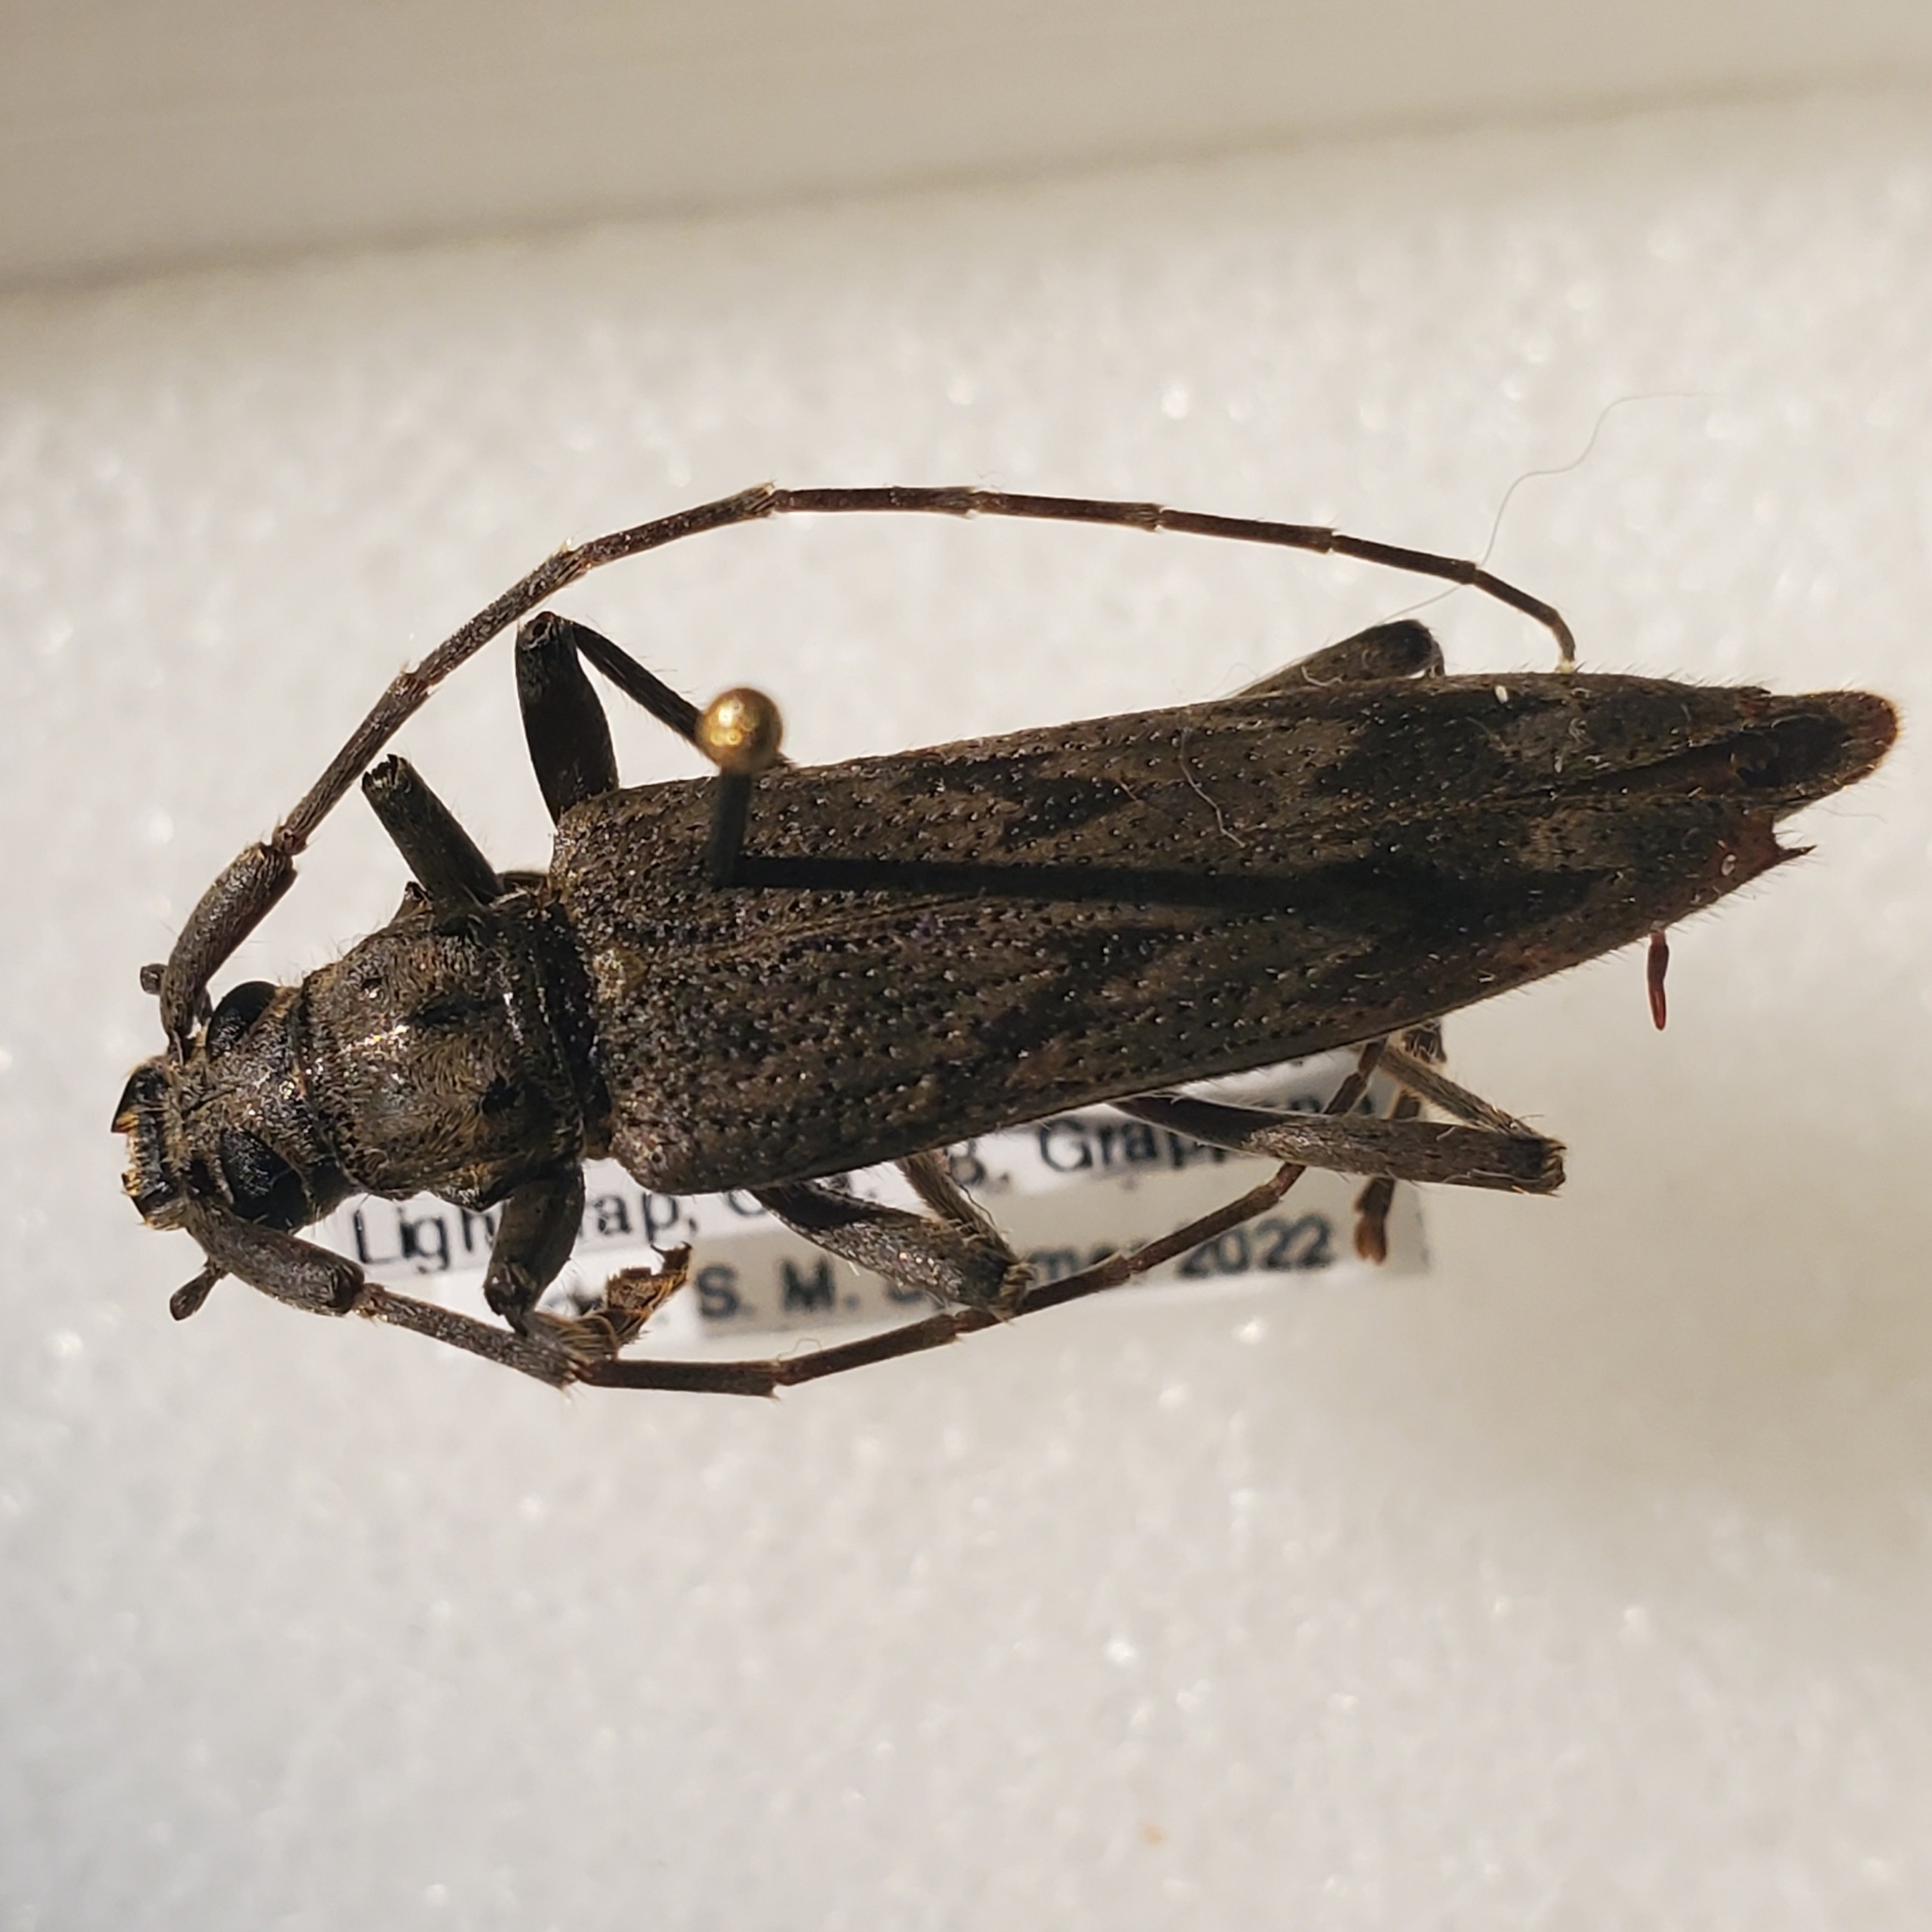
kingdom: Animalia
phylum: Arthropoda
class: Insecta
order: Coleoptera
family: Cerambycidae
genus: Elytrimitatrix
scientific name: Elytrimitatrix undata
